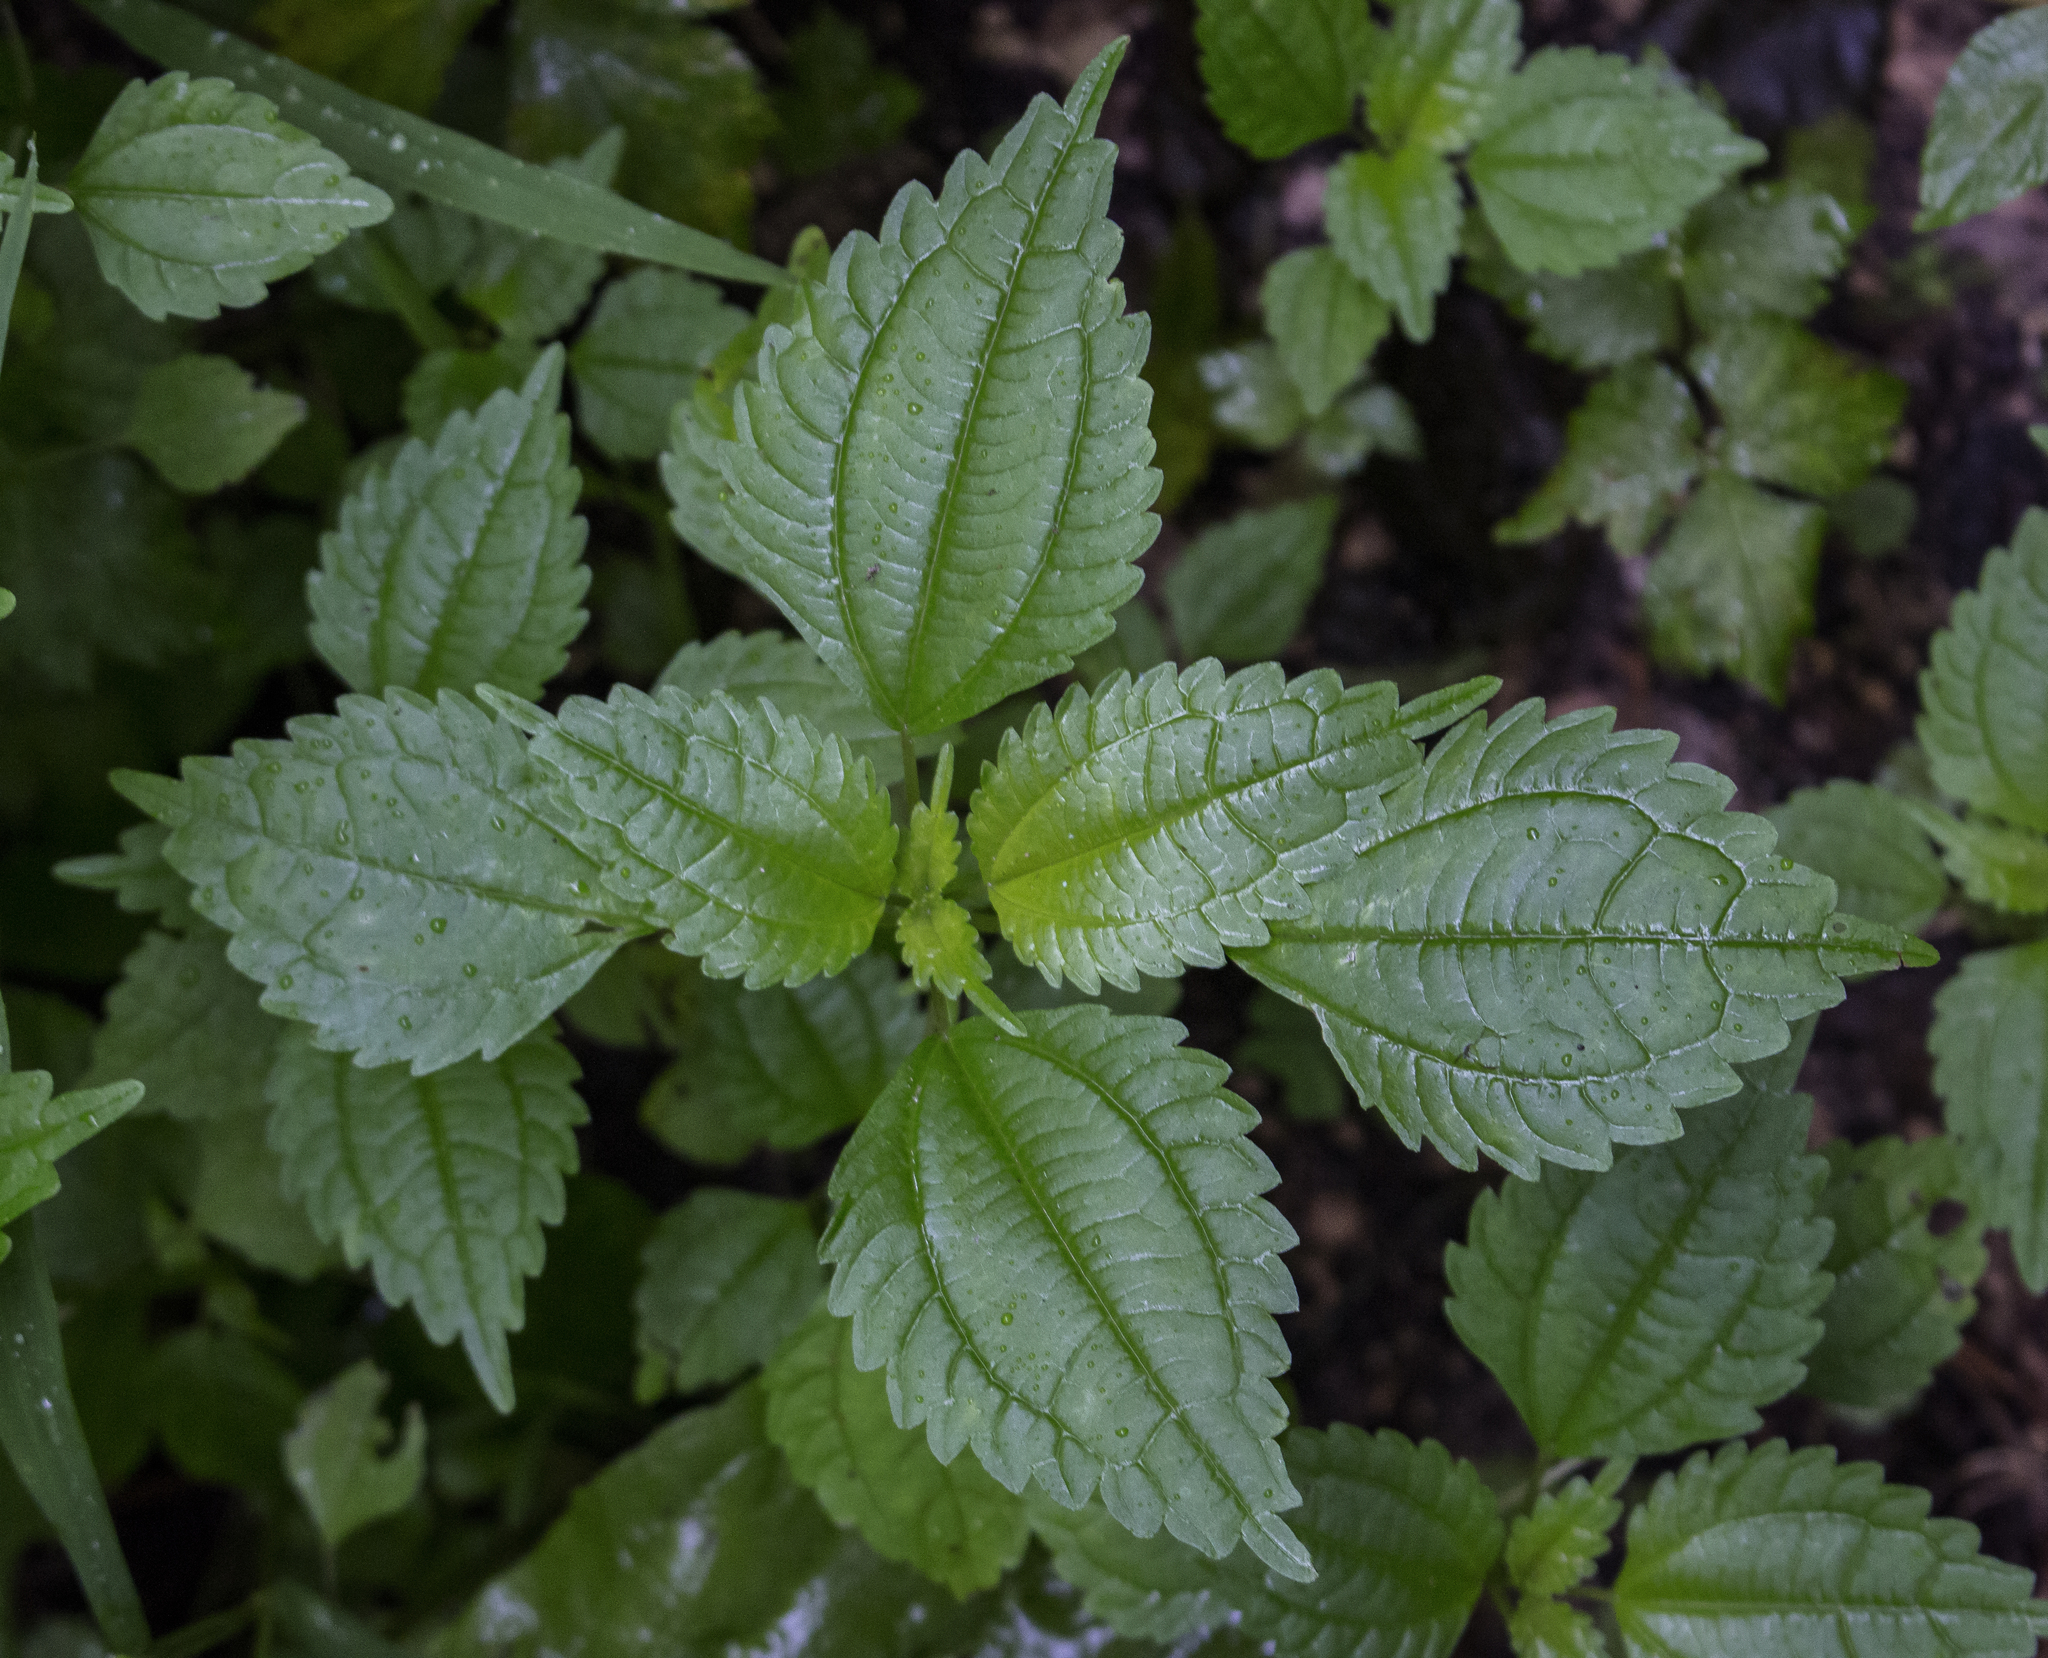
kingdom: Plantae
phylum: Tracheophyta
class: Magnoliopsida
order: Rosales
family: Urticaceae
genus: Pilea
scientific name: Pilea pumila
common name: Clearweed
